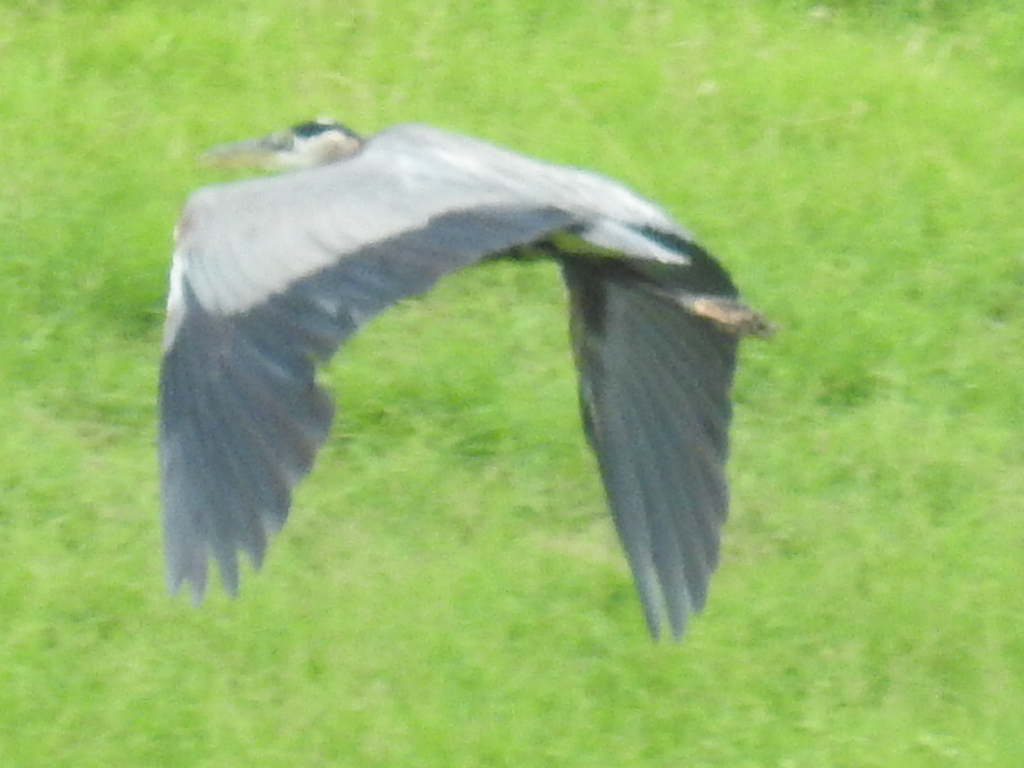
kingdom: Animalia
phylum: Chordata
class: Aves
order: Pelecaniformes
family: Ardeidae
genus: Ardea
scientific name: Ardea herodias
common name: Great blue heron
